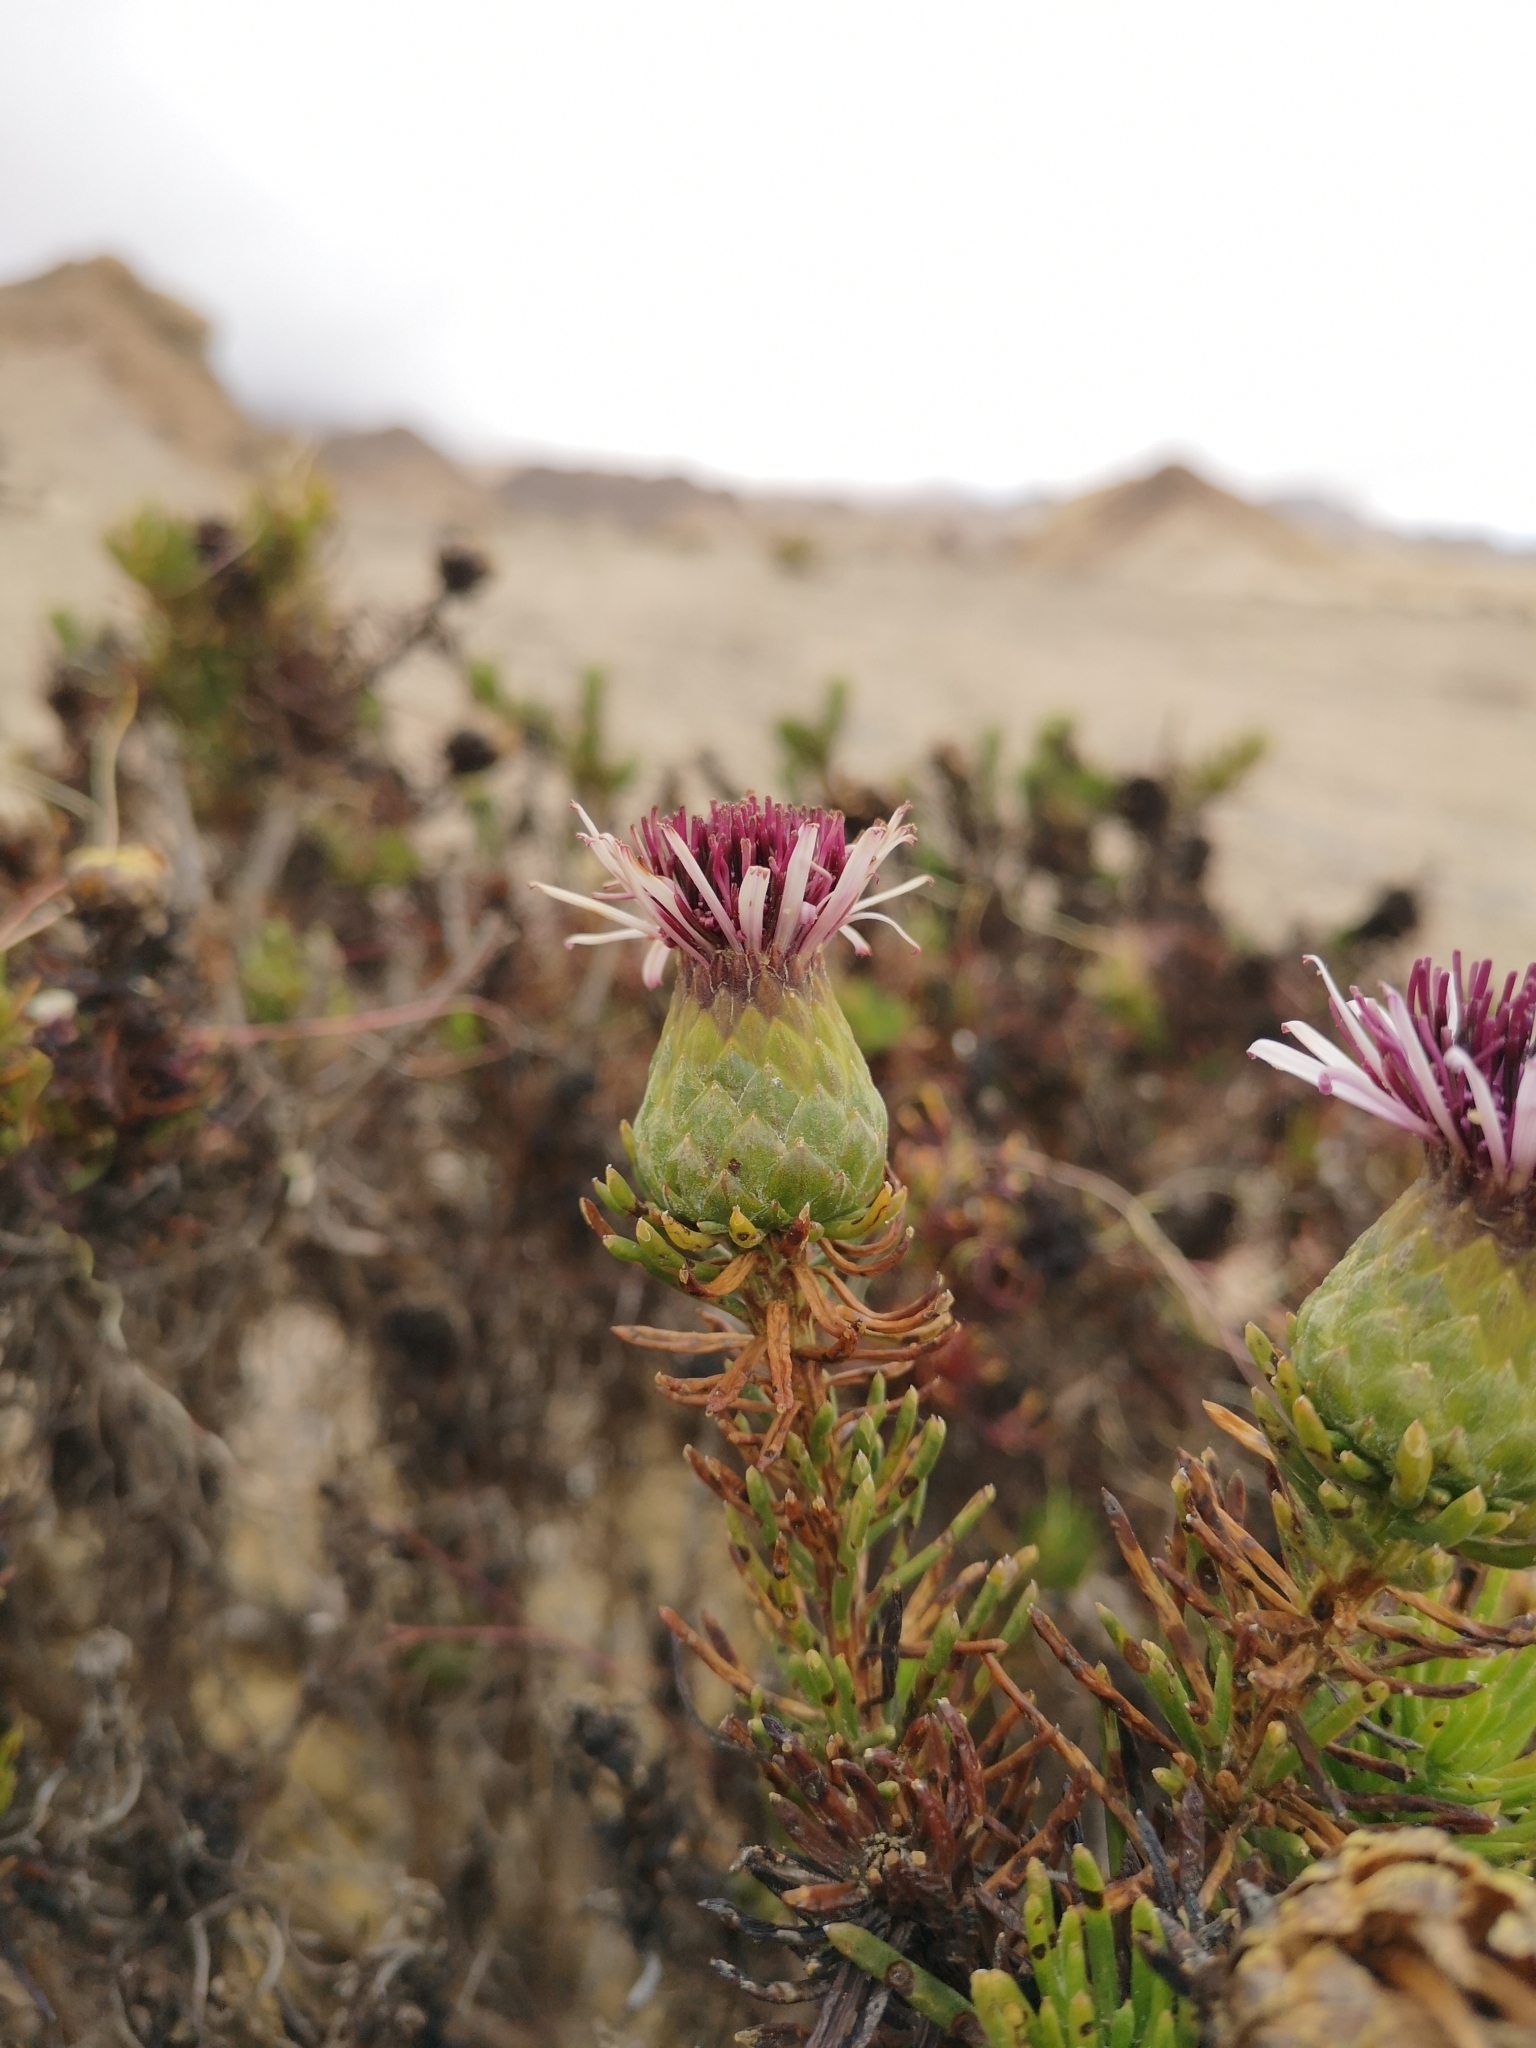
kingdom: Plantae
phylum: Tracheophyta
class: Magnoliopsida
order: Asterales
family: Asteraceae
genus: Gypothamnium
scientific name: Gypothamnium pinifolium
